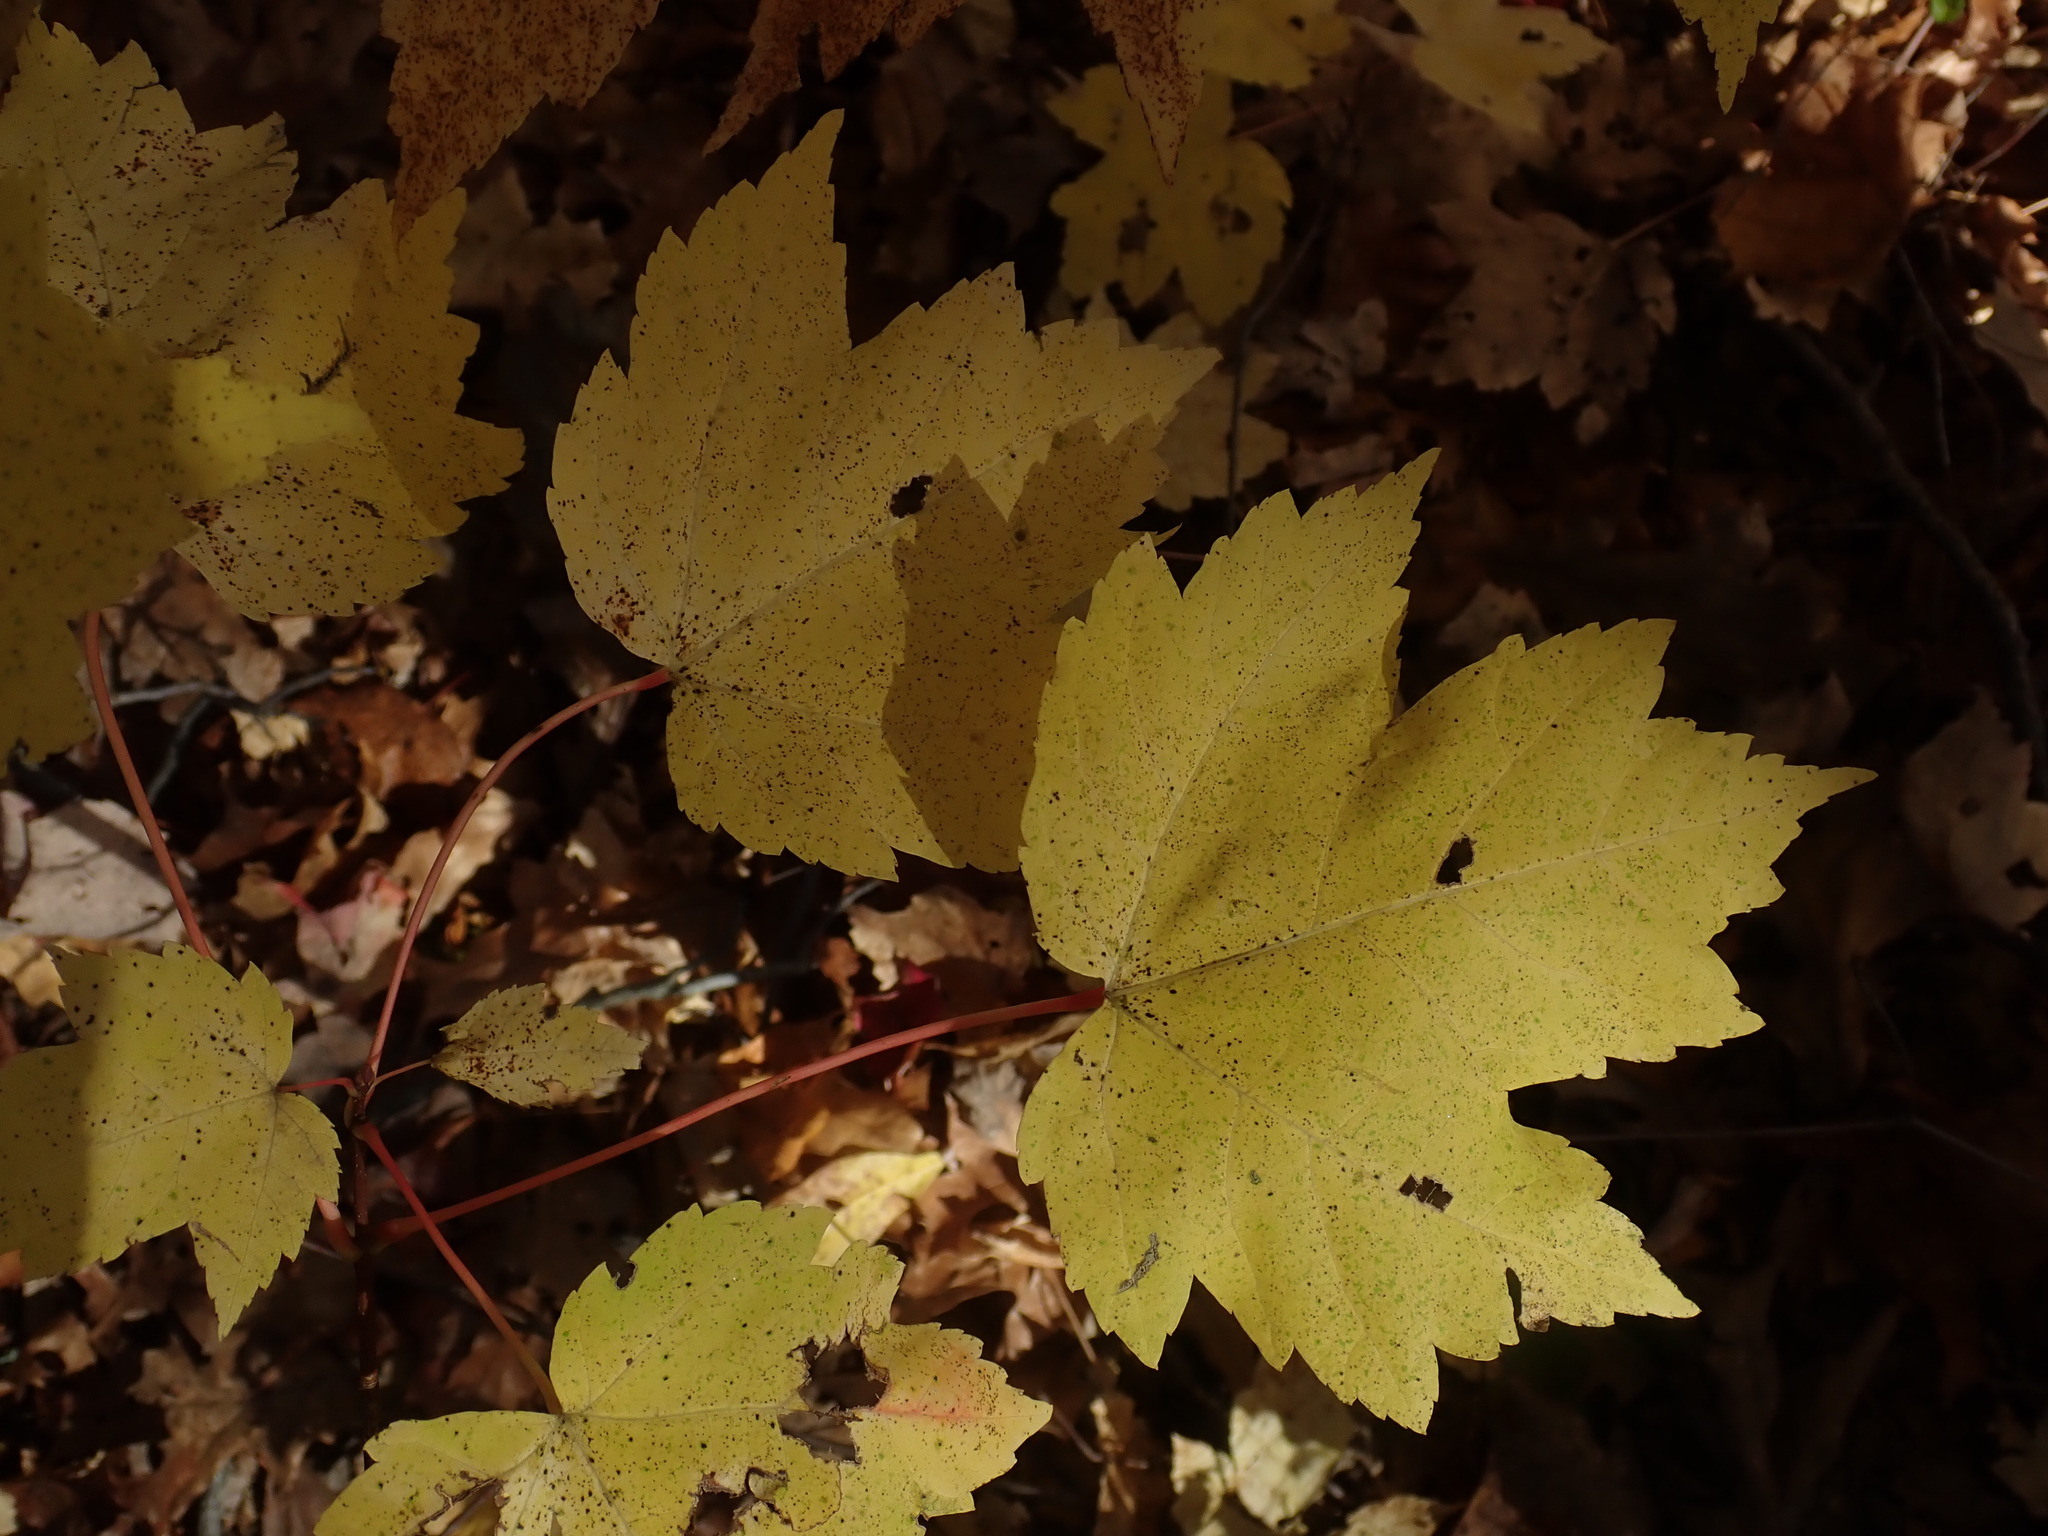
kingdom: Plantae
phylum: Tracheophyta
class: Magnoliopsida
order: Sapindales
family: Sapindaceae
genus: Acer
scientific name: Acer rubrum
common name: Red maple
